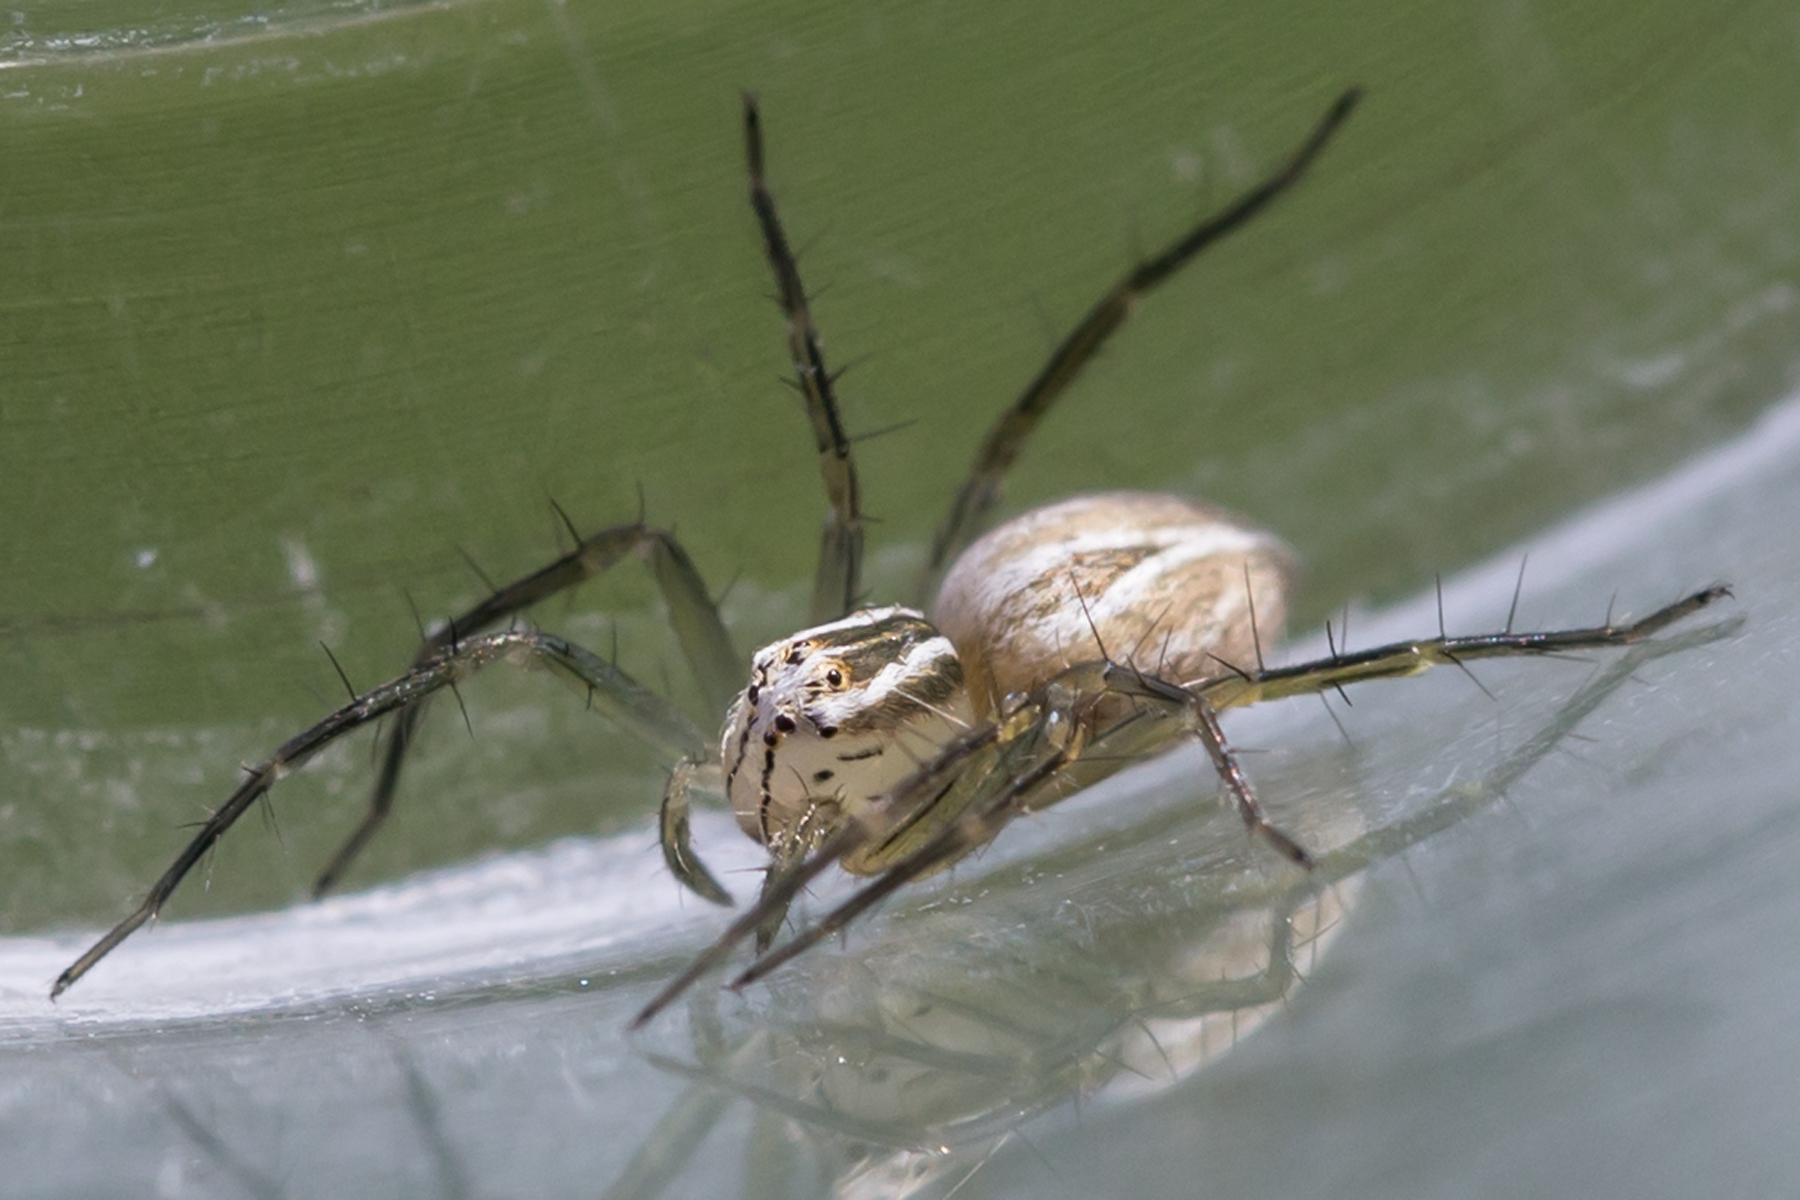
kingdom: Animalia
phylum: Arthropoda
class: Arachnida
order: Araneae
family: Oxyopidae
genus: Oxyopes
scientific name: Oxyopes salticus
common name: Lynx spiders
